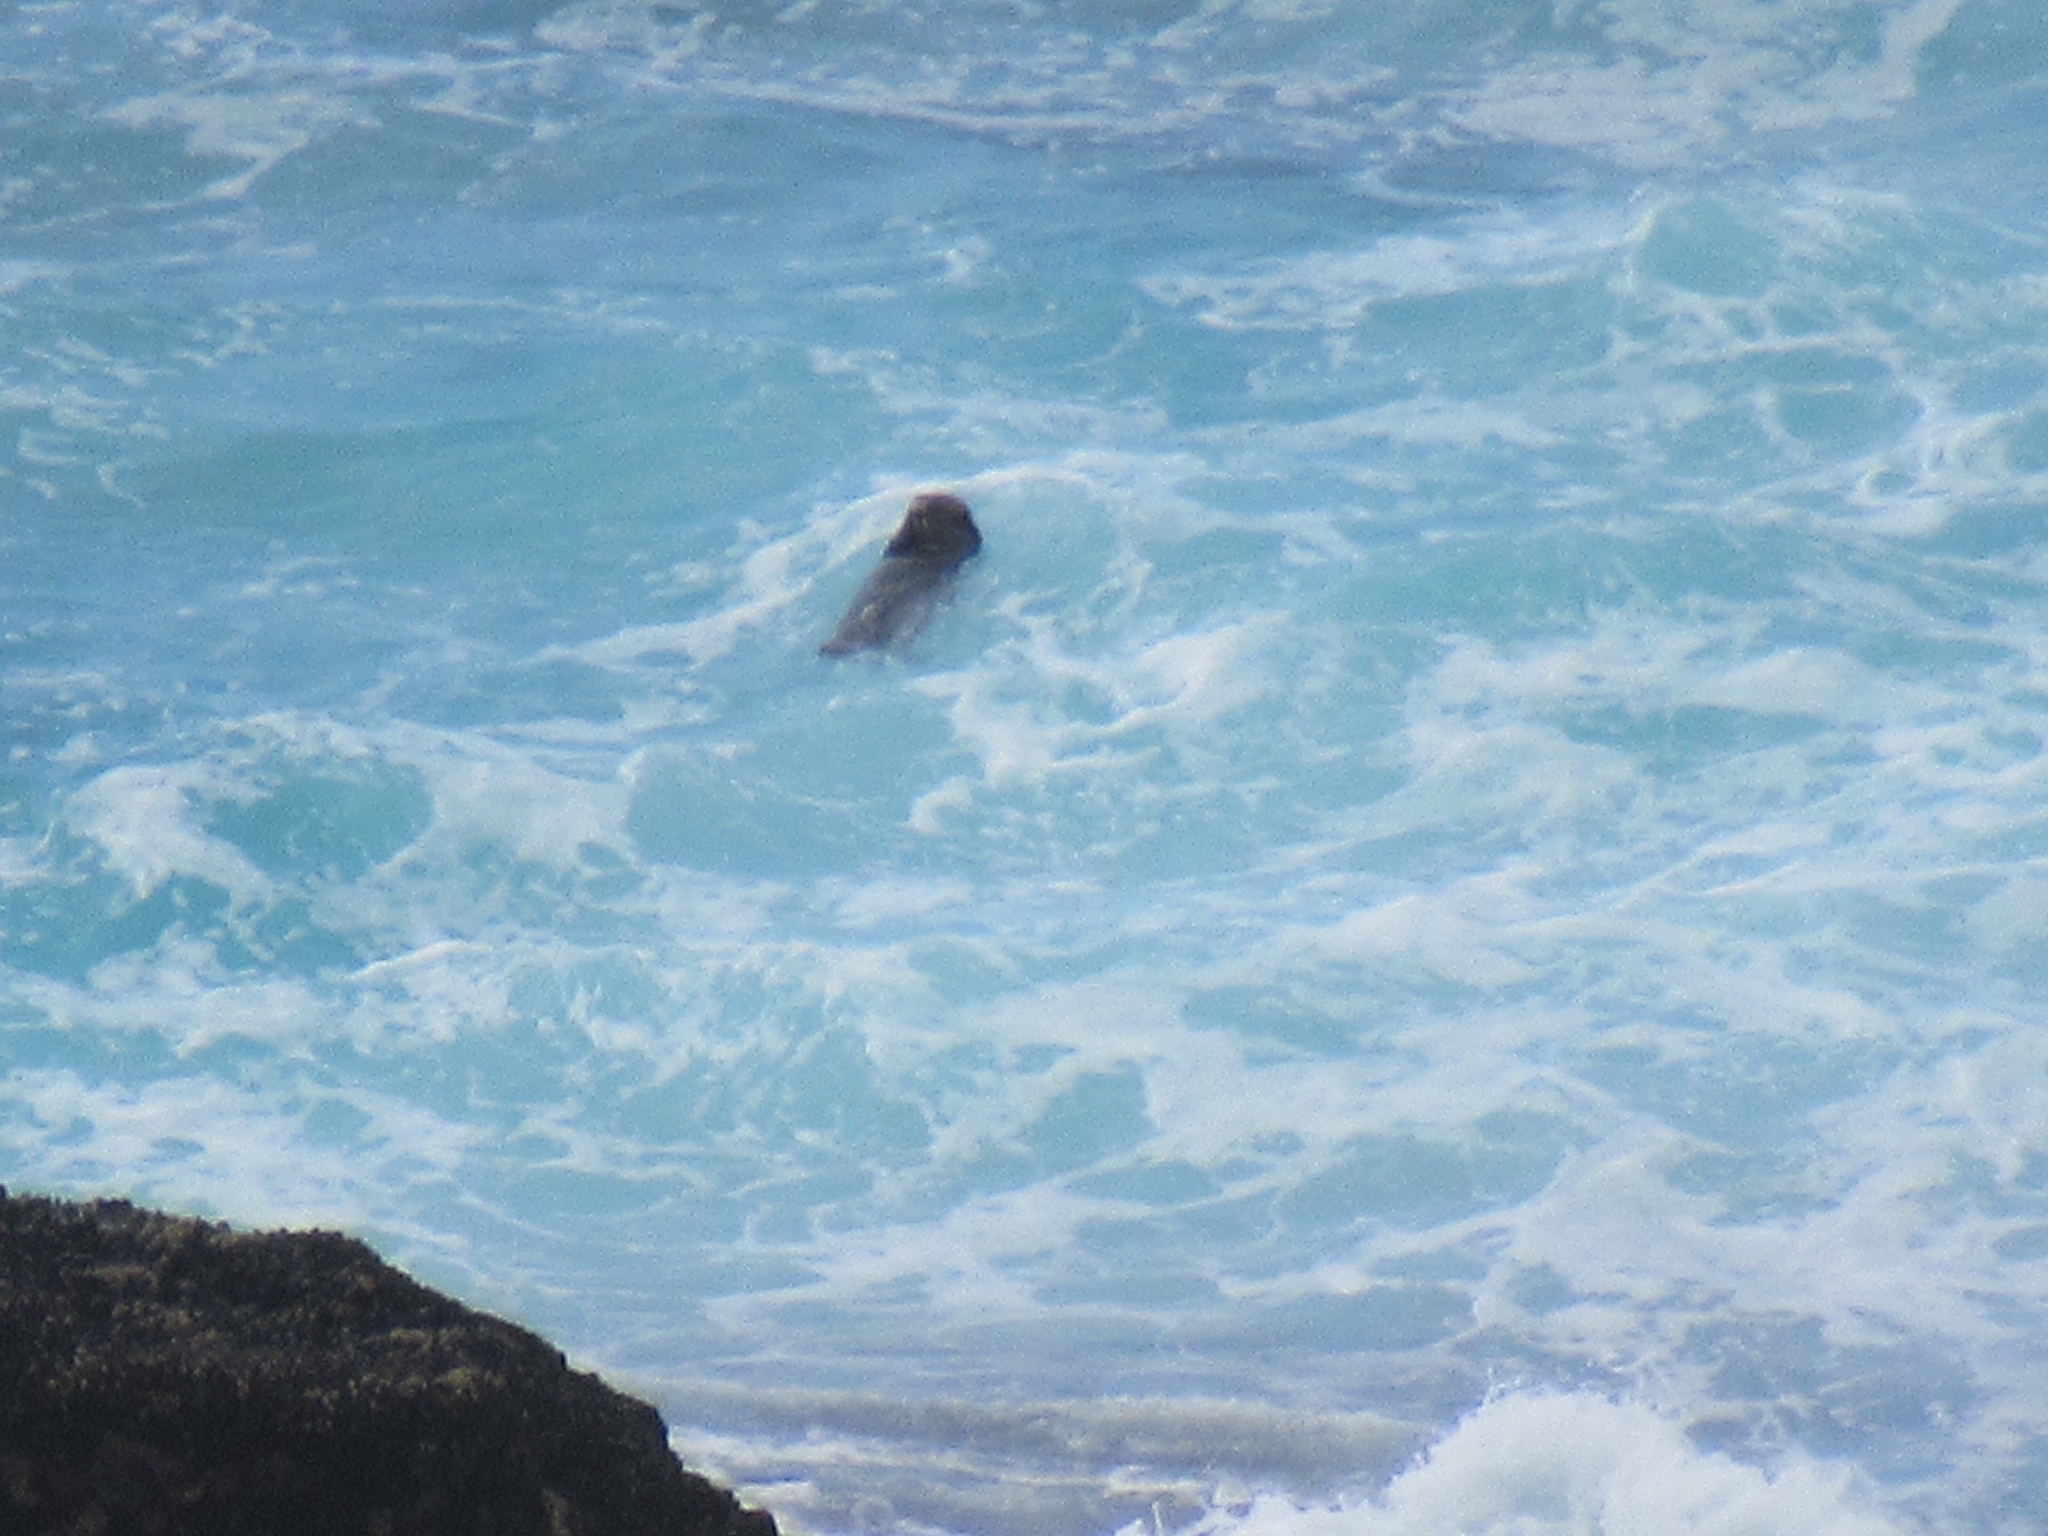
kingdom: Animalia
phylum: Chordata
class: Mammalia
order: Carnivora
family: Mustelidae
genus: Enhydra
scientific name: Enhydra lutris
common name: Sea otter
